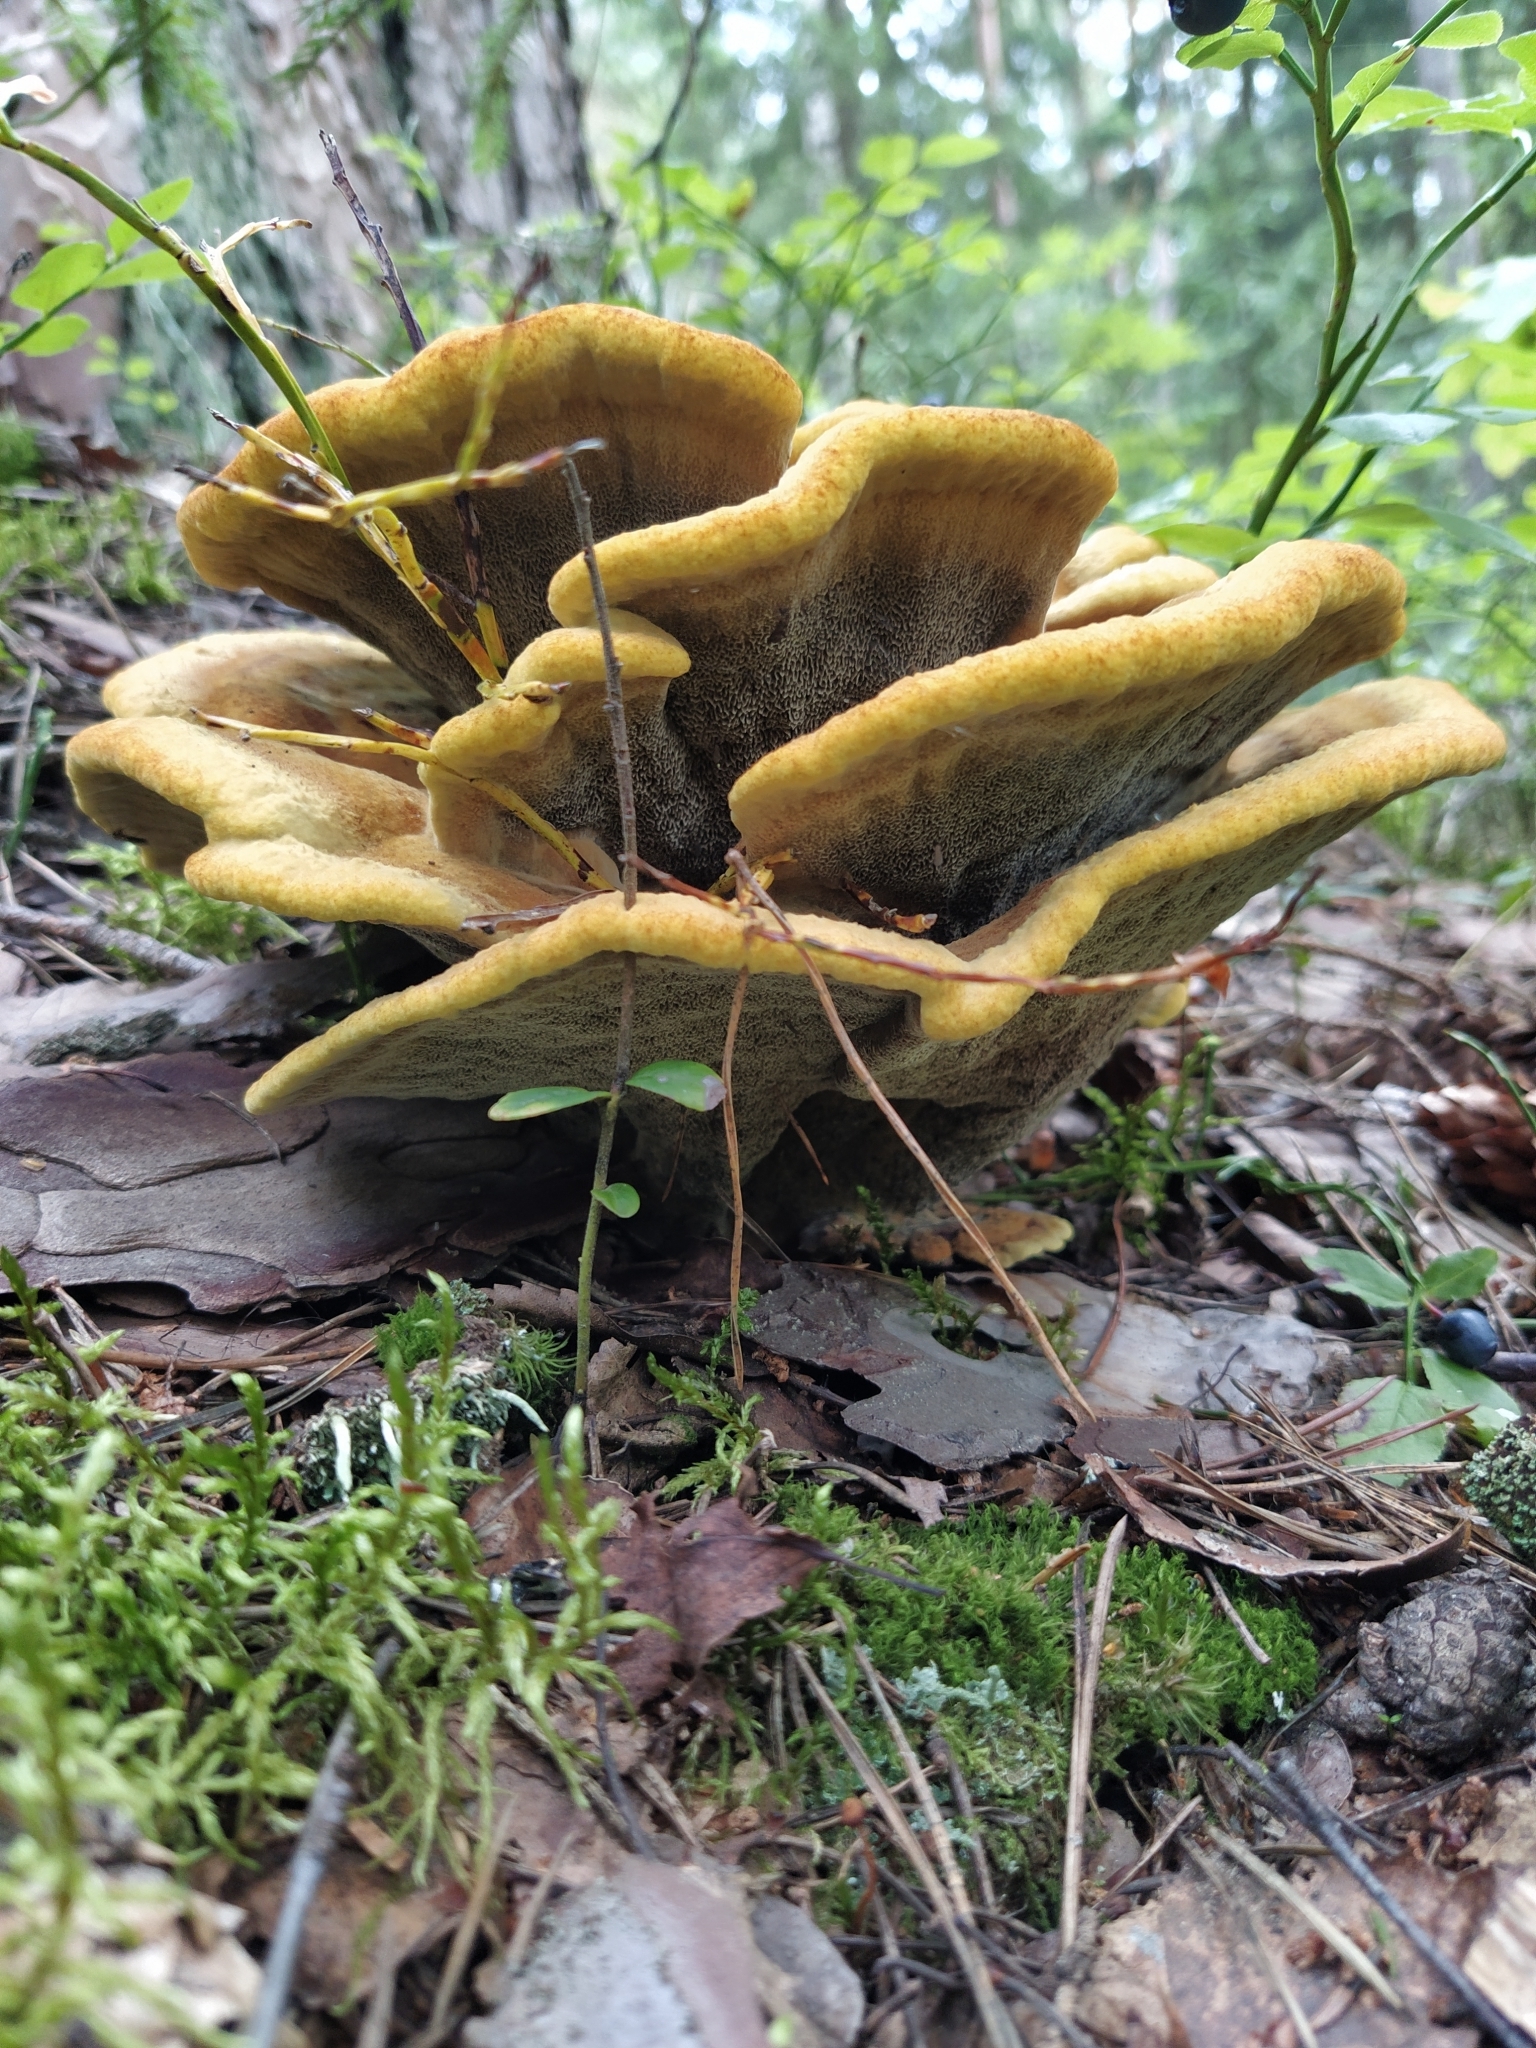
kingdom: Fungi
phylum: Basidiomycota
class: Agaricomycetes
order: Polyporales
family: Laetiporaceae
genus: Phaeolus
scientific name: Phaeolus schweinitzii
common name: Dyer's mazegill
